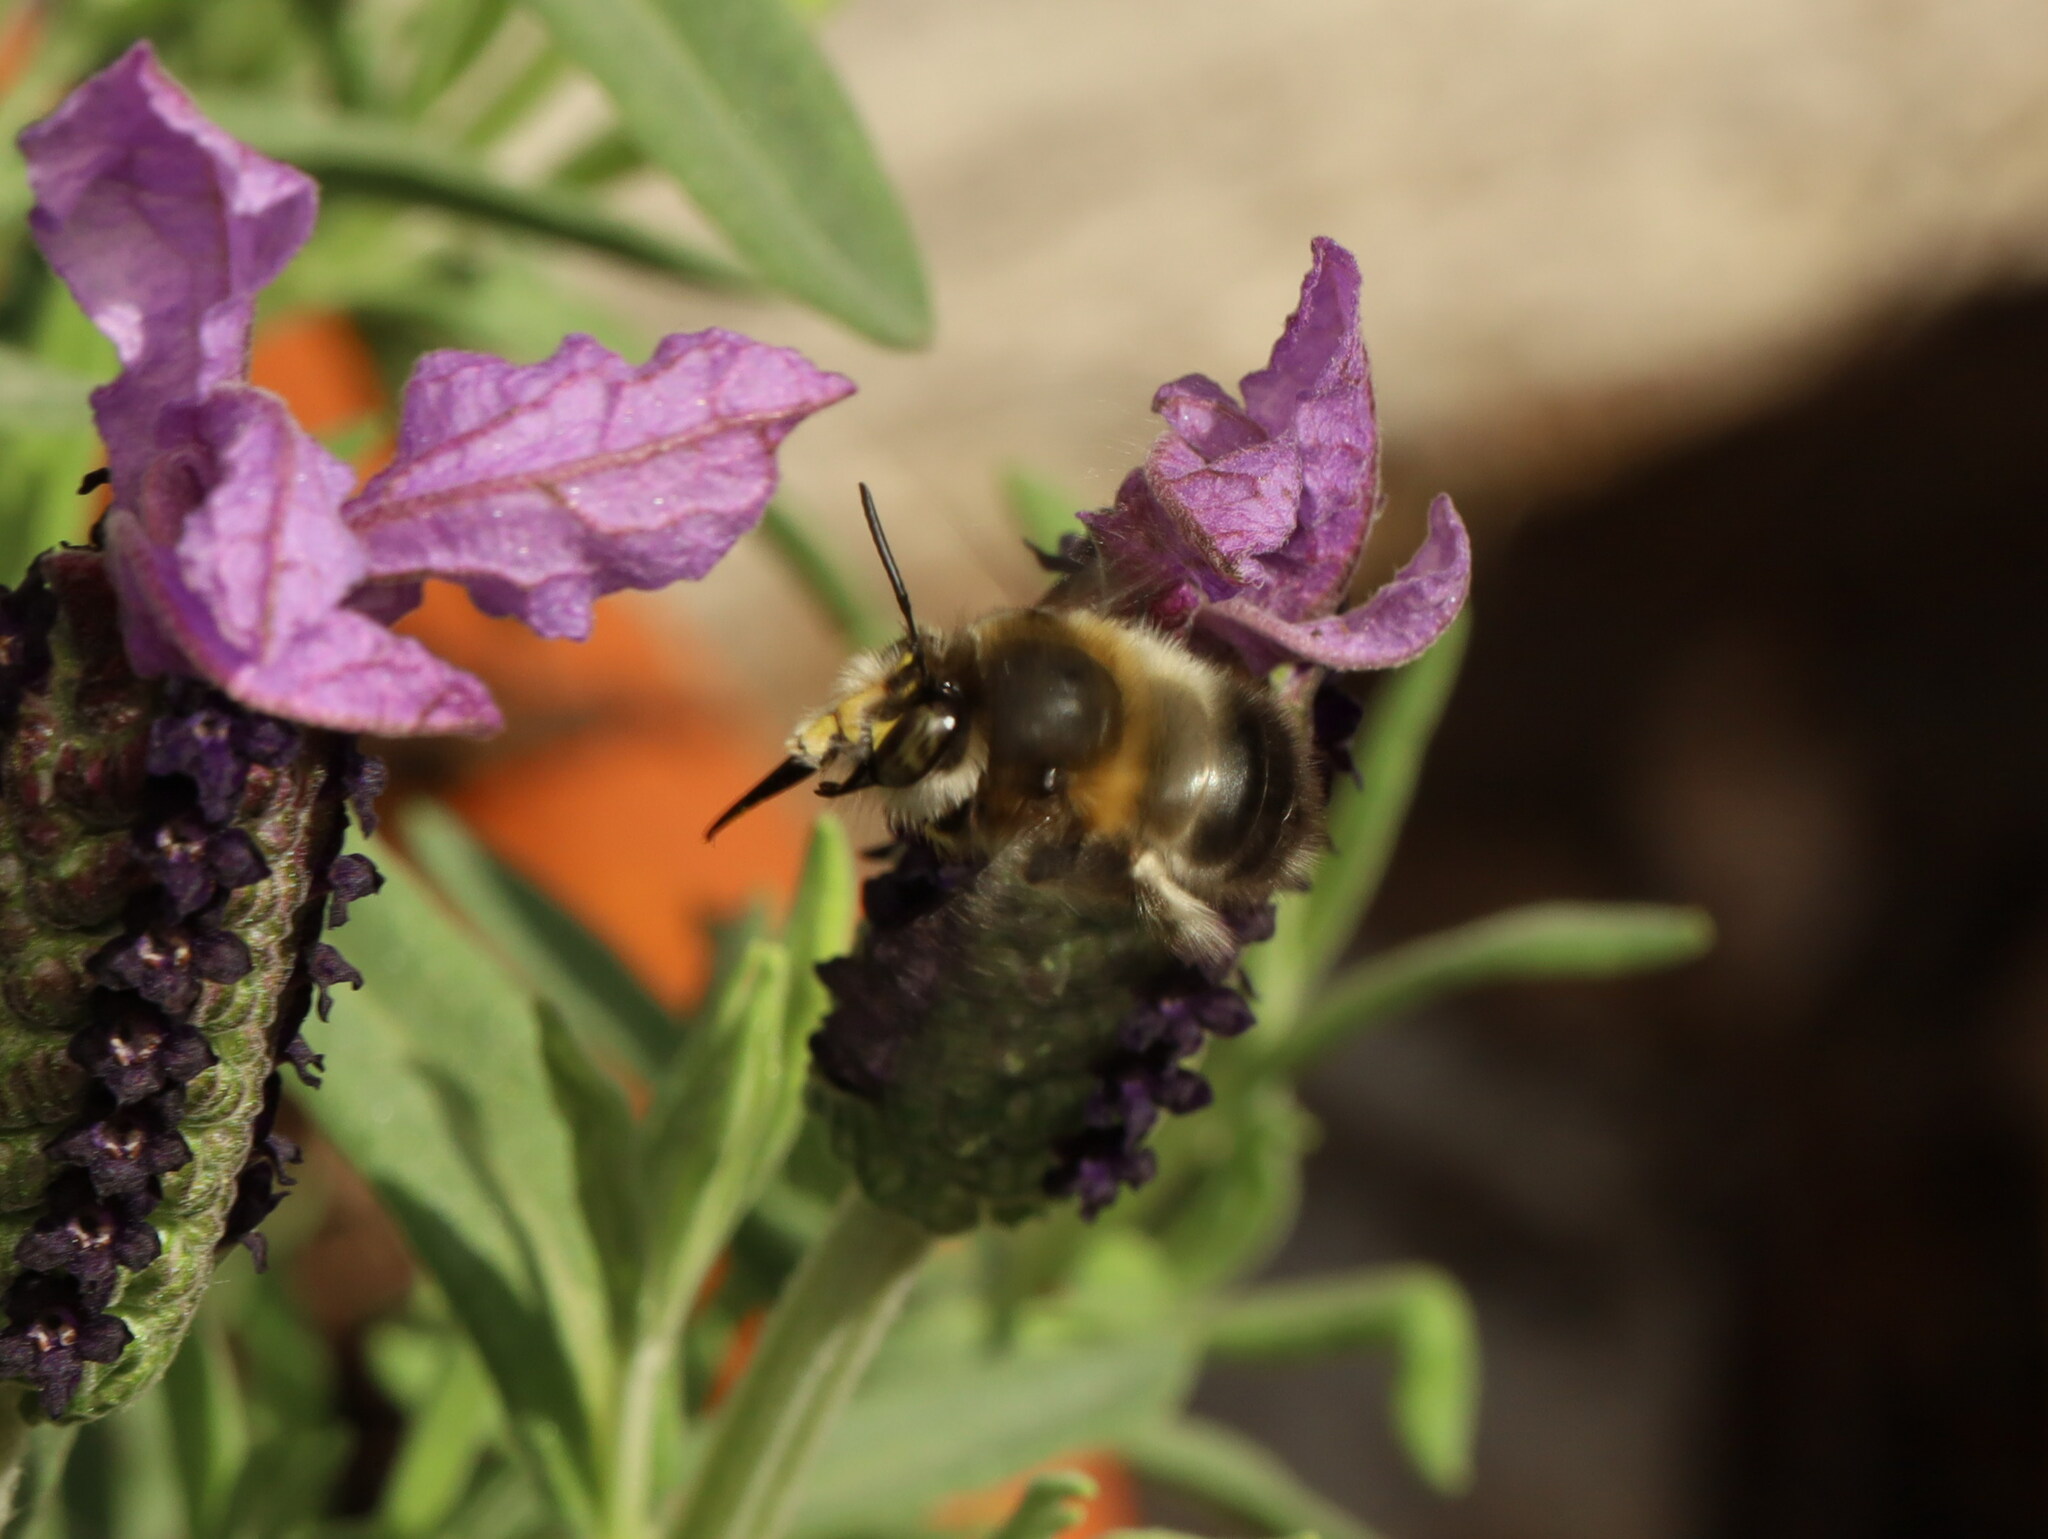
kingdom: Animalia
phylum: Arthropoda
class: Insecta
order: Hymenoptera
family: Apidae
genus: Anthophora
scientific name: Anthophora dispar
